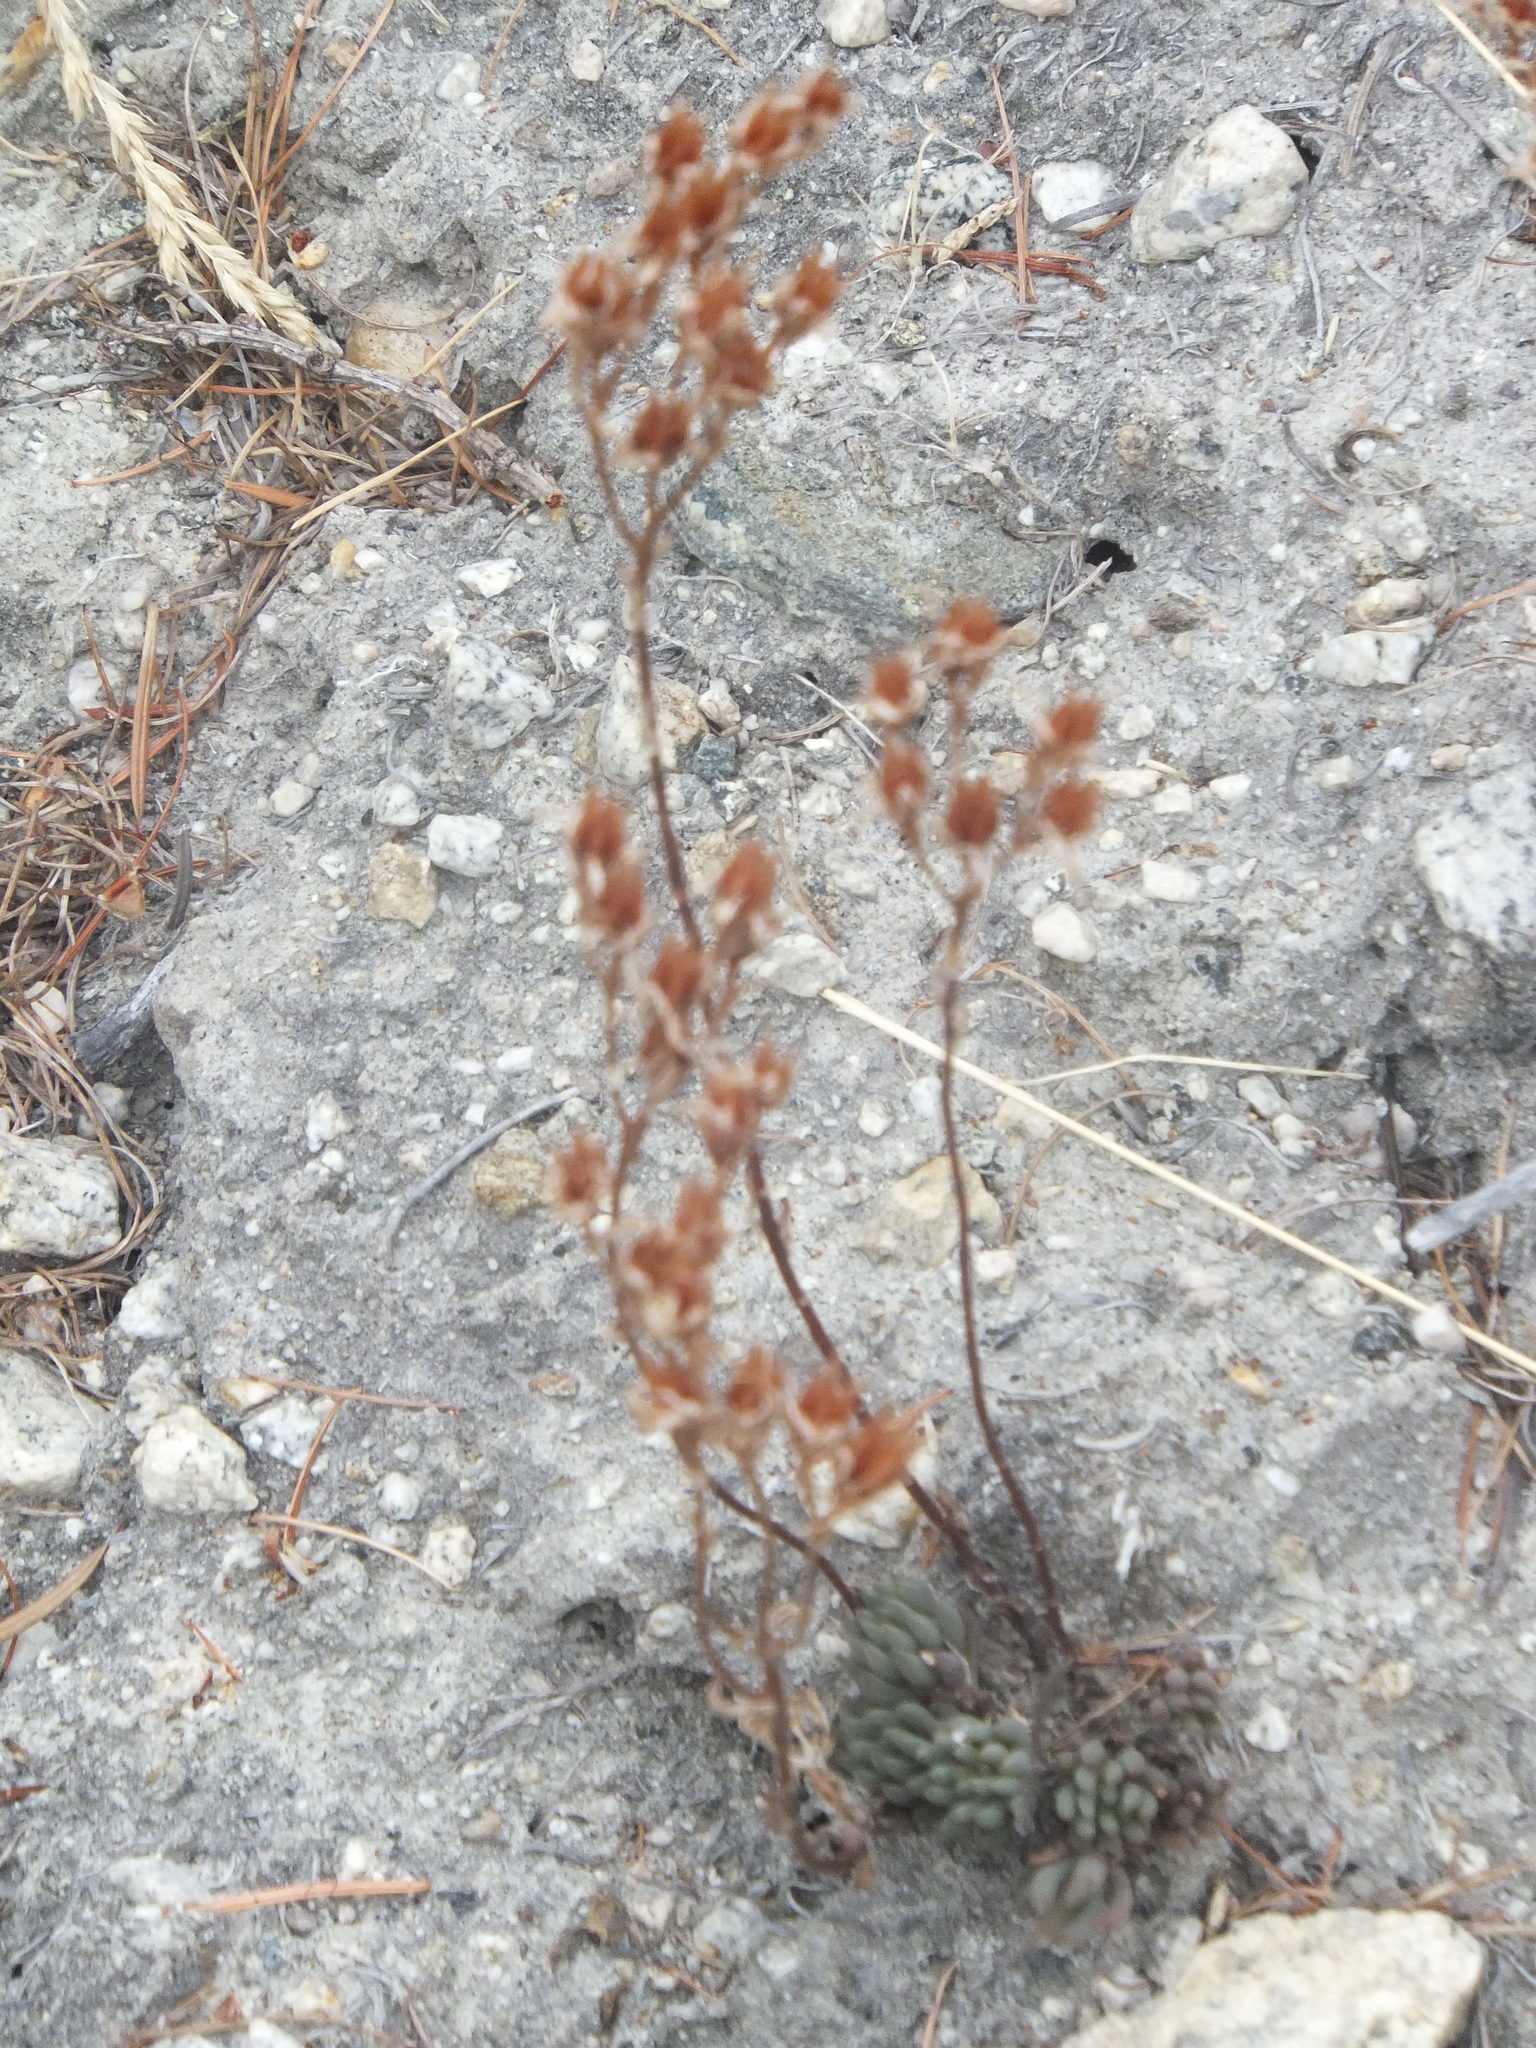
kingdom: Plantae
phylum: Tracheophyta
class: Magnoliopsida
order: Saxifragales
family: Crassulaceae
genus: Sedum
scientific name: Sedum lanceolatum
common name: Common stonecrop
